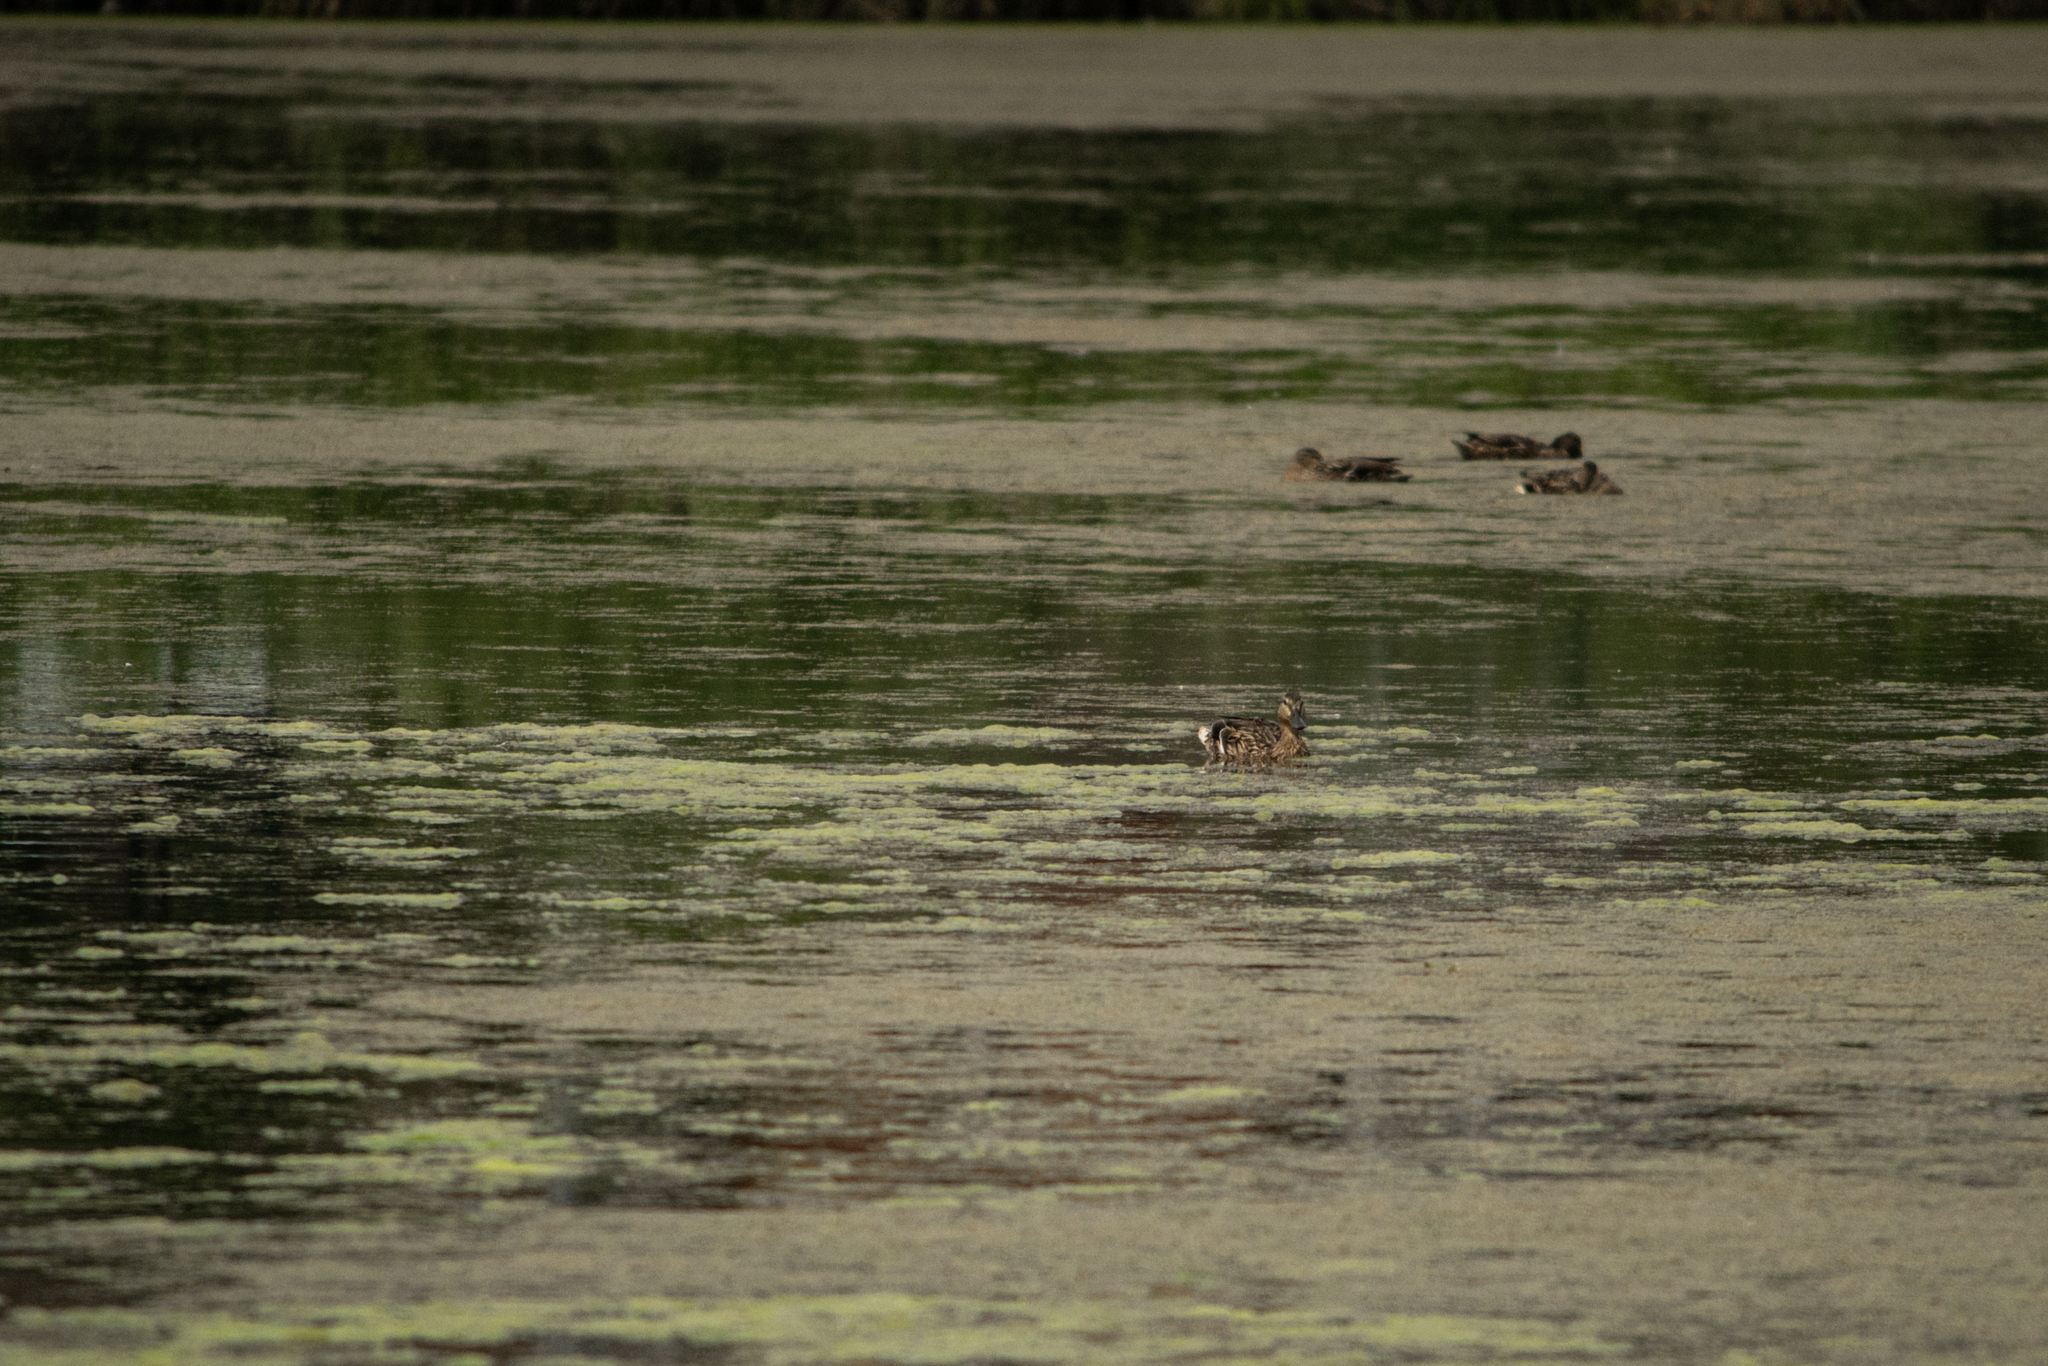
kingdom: Animalia
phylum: Chordata
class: Aves
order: Anseriformes
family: Anatidae
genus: Anas
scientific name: Anas platyrhynchos
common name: Mallard
